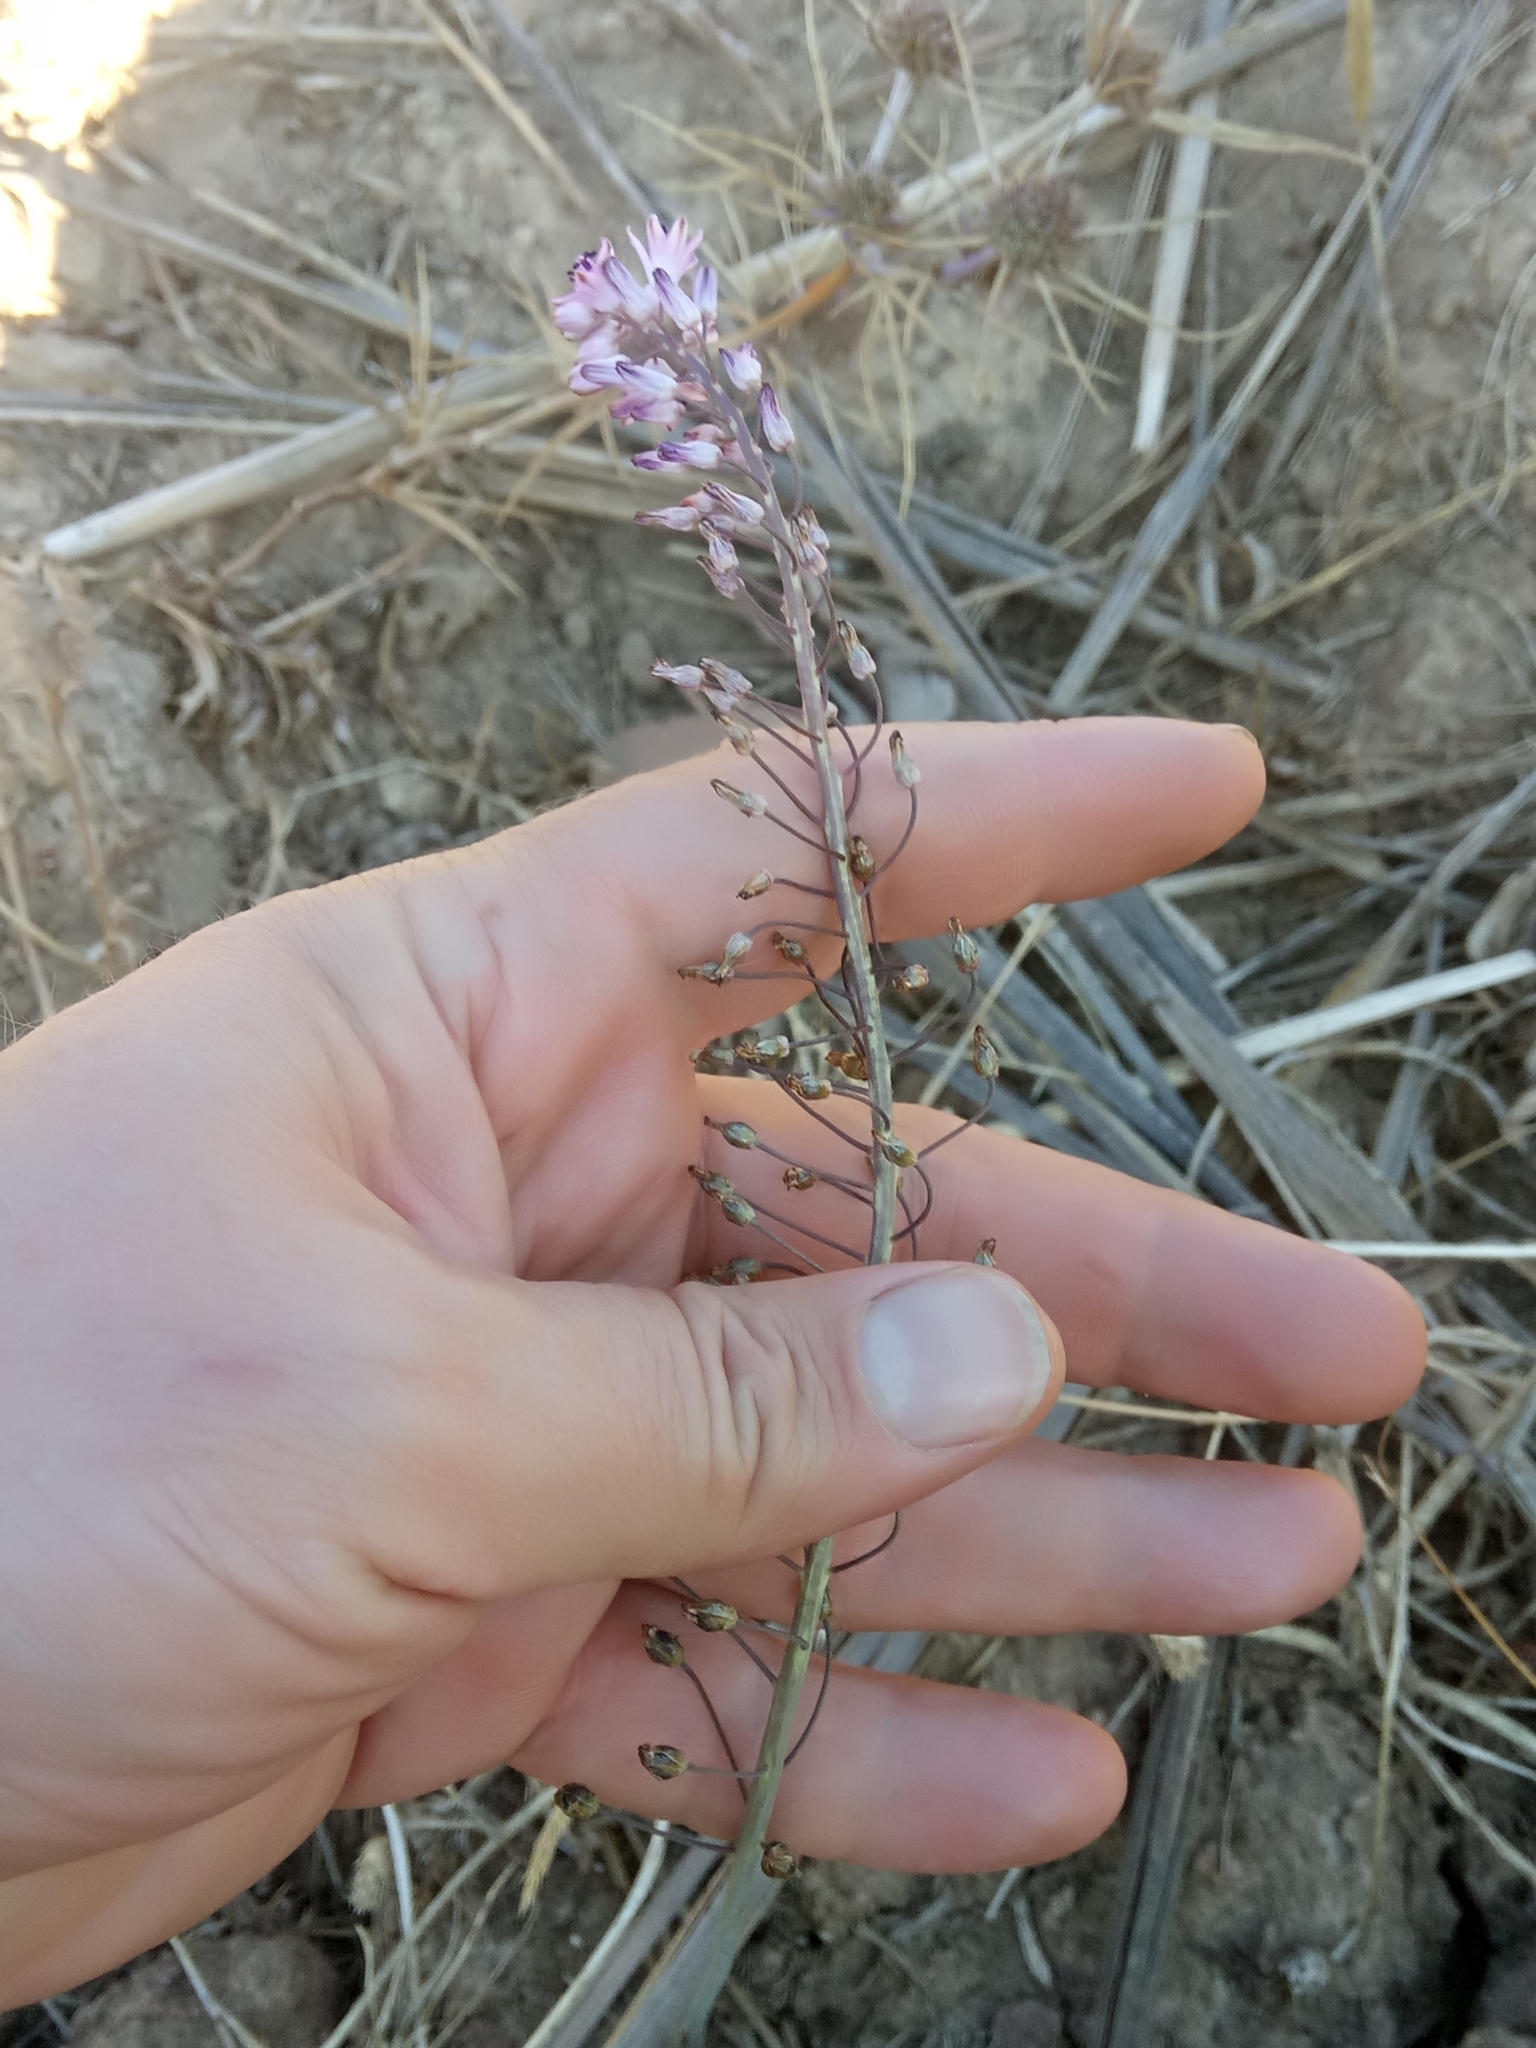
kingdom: Plantae
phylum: Tracheophyta
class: Liliopsida
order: Asparagales
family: Asparagaceae
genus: Prospero
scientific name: Prospero fallax
